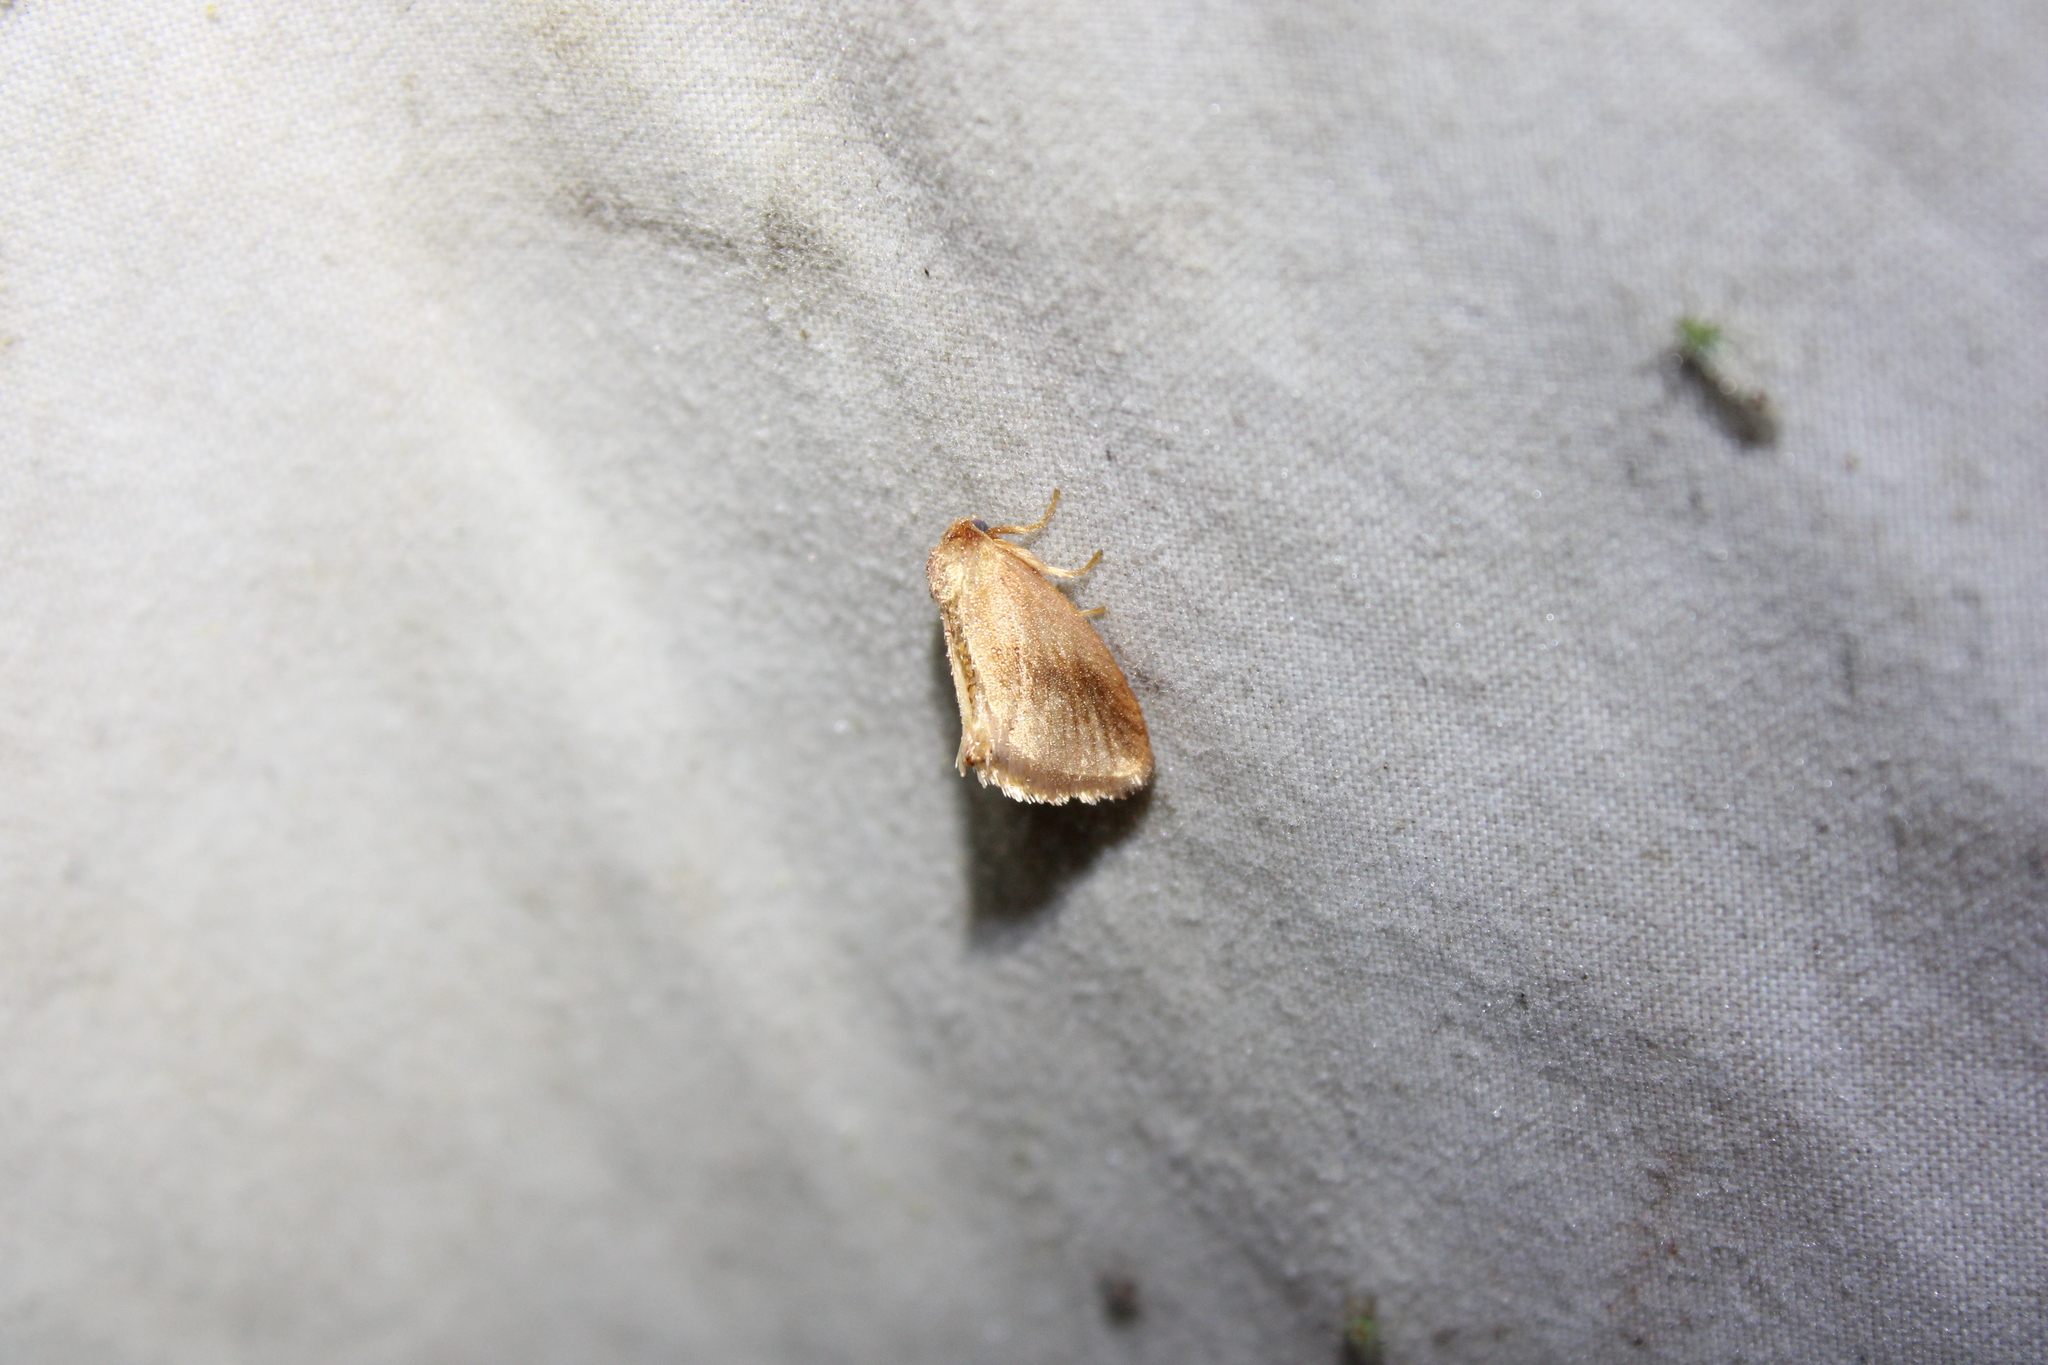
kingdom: Animalia
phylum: Arthropoda
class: Insecta
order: Lepidoptera
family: Limacodidae
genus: Tortricidia
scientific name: Tortricidia testacea
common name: Early button slug moth
